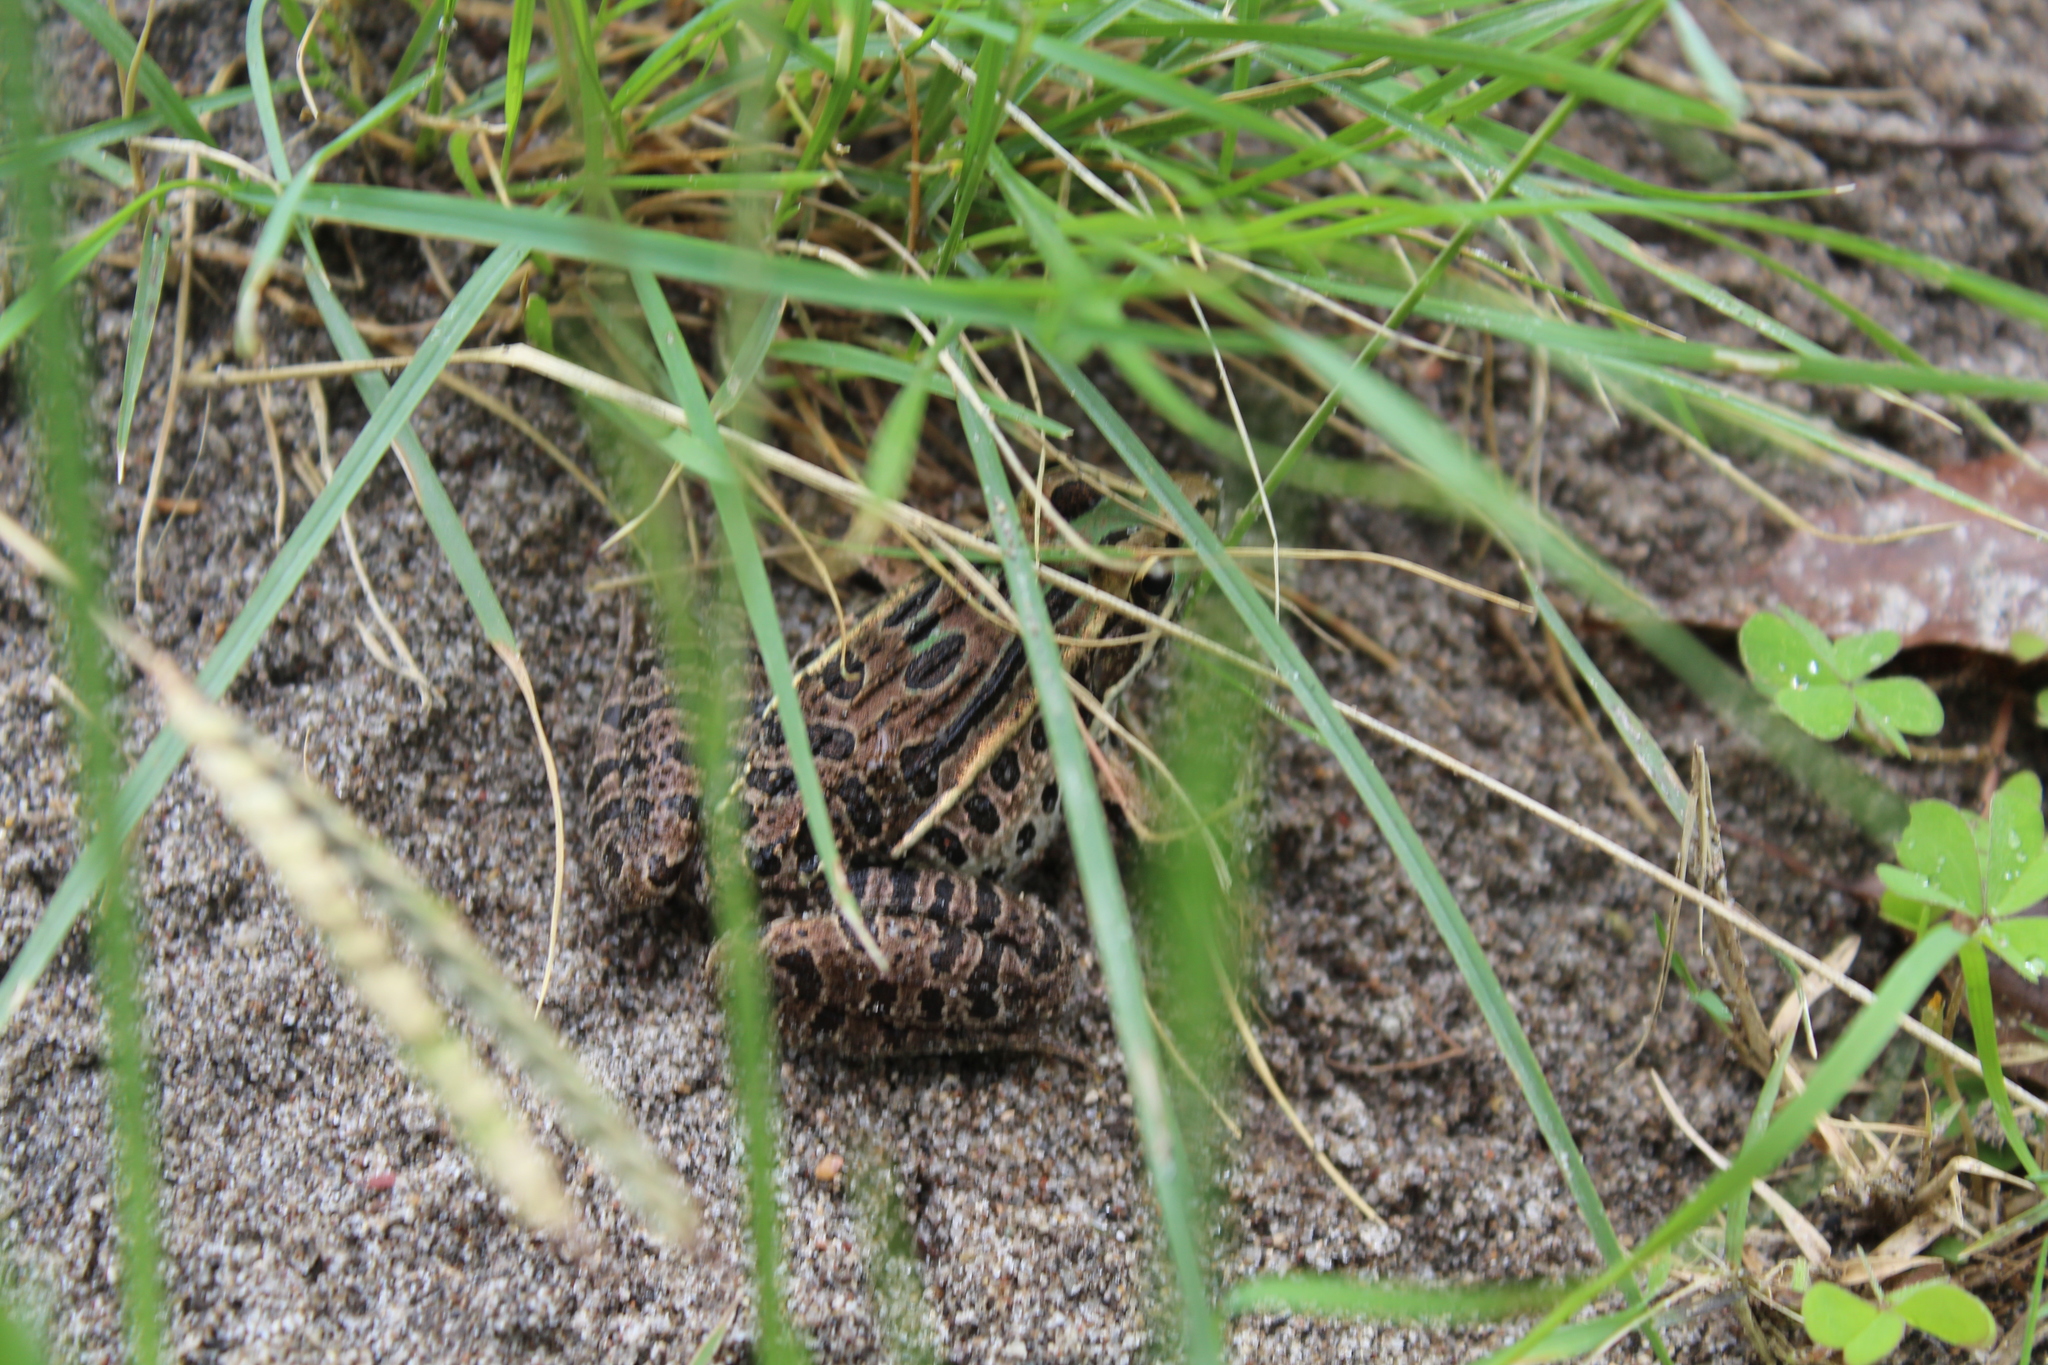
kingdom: Animalia
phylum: Chordata
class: Amphibia
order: Anura
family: Ranidae
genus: Lithobates
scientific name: Lithobates spectabilis
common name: Showy leopard frog
